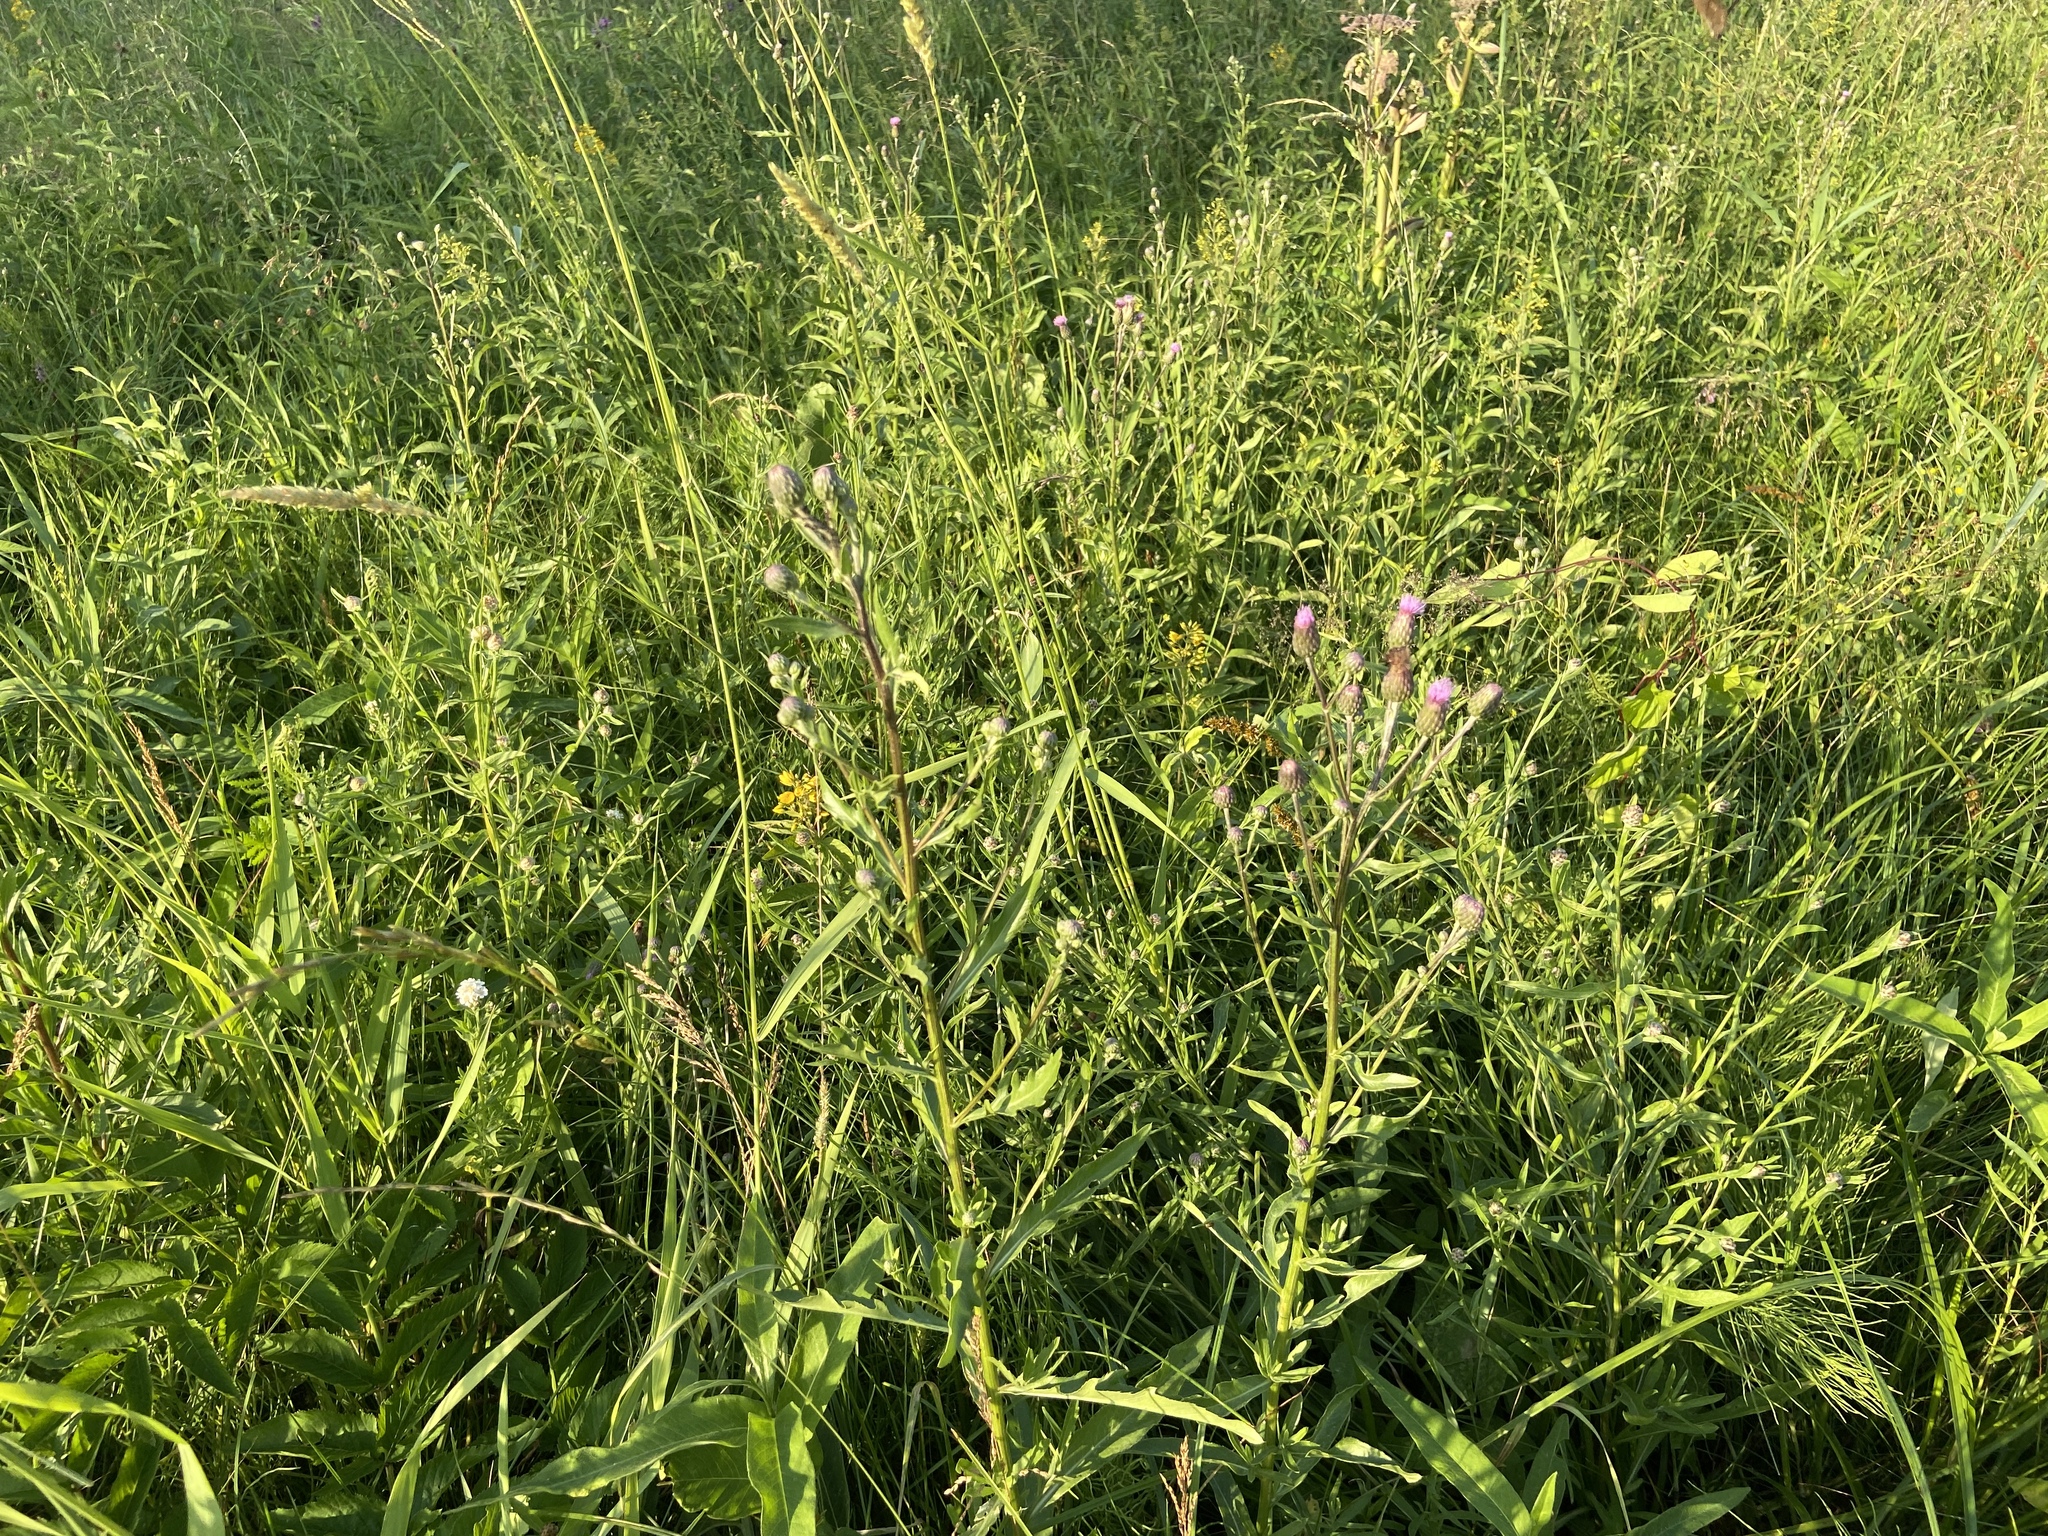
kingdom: Plantae
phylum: Tracheophyta
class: Magnoliopsida
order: Asterales
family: Asteraceae
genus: Cirsium
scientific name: Cirsium arvense
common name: Creeping thistle
